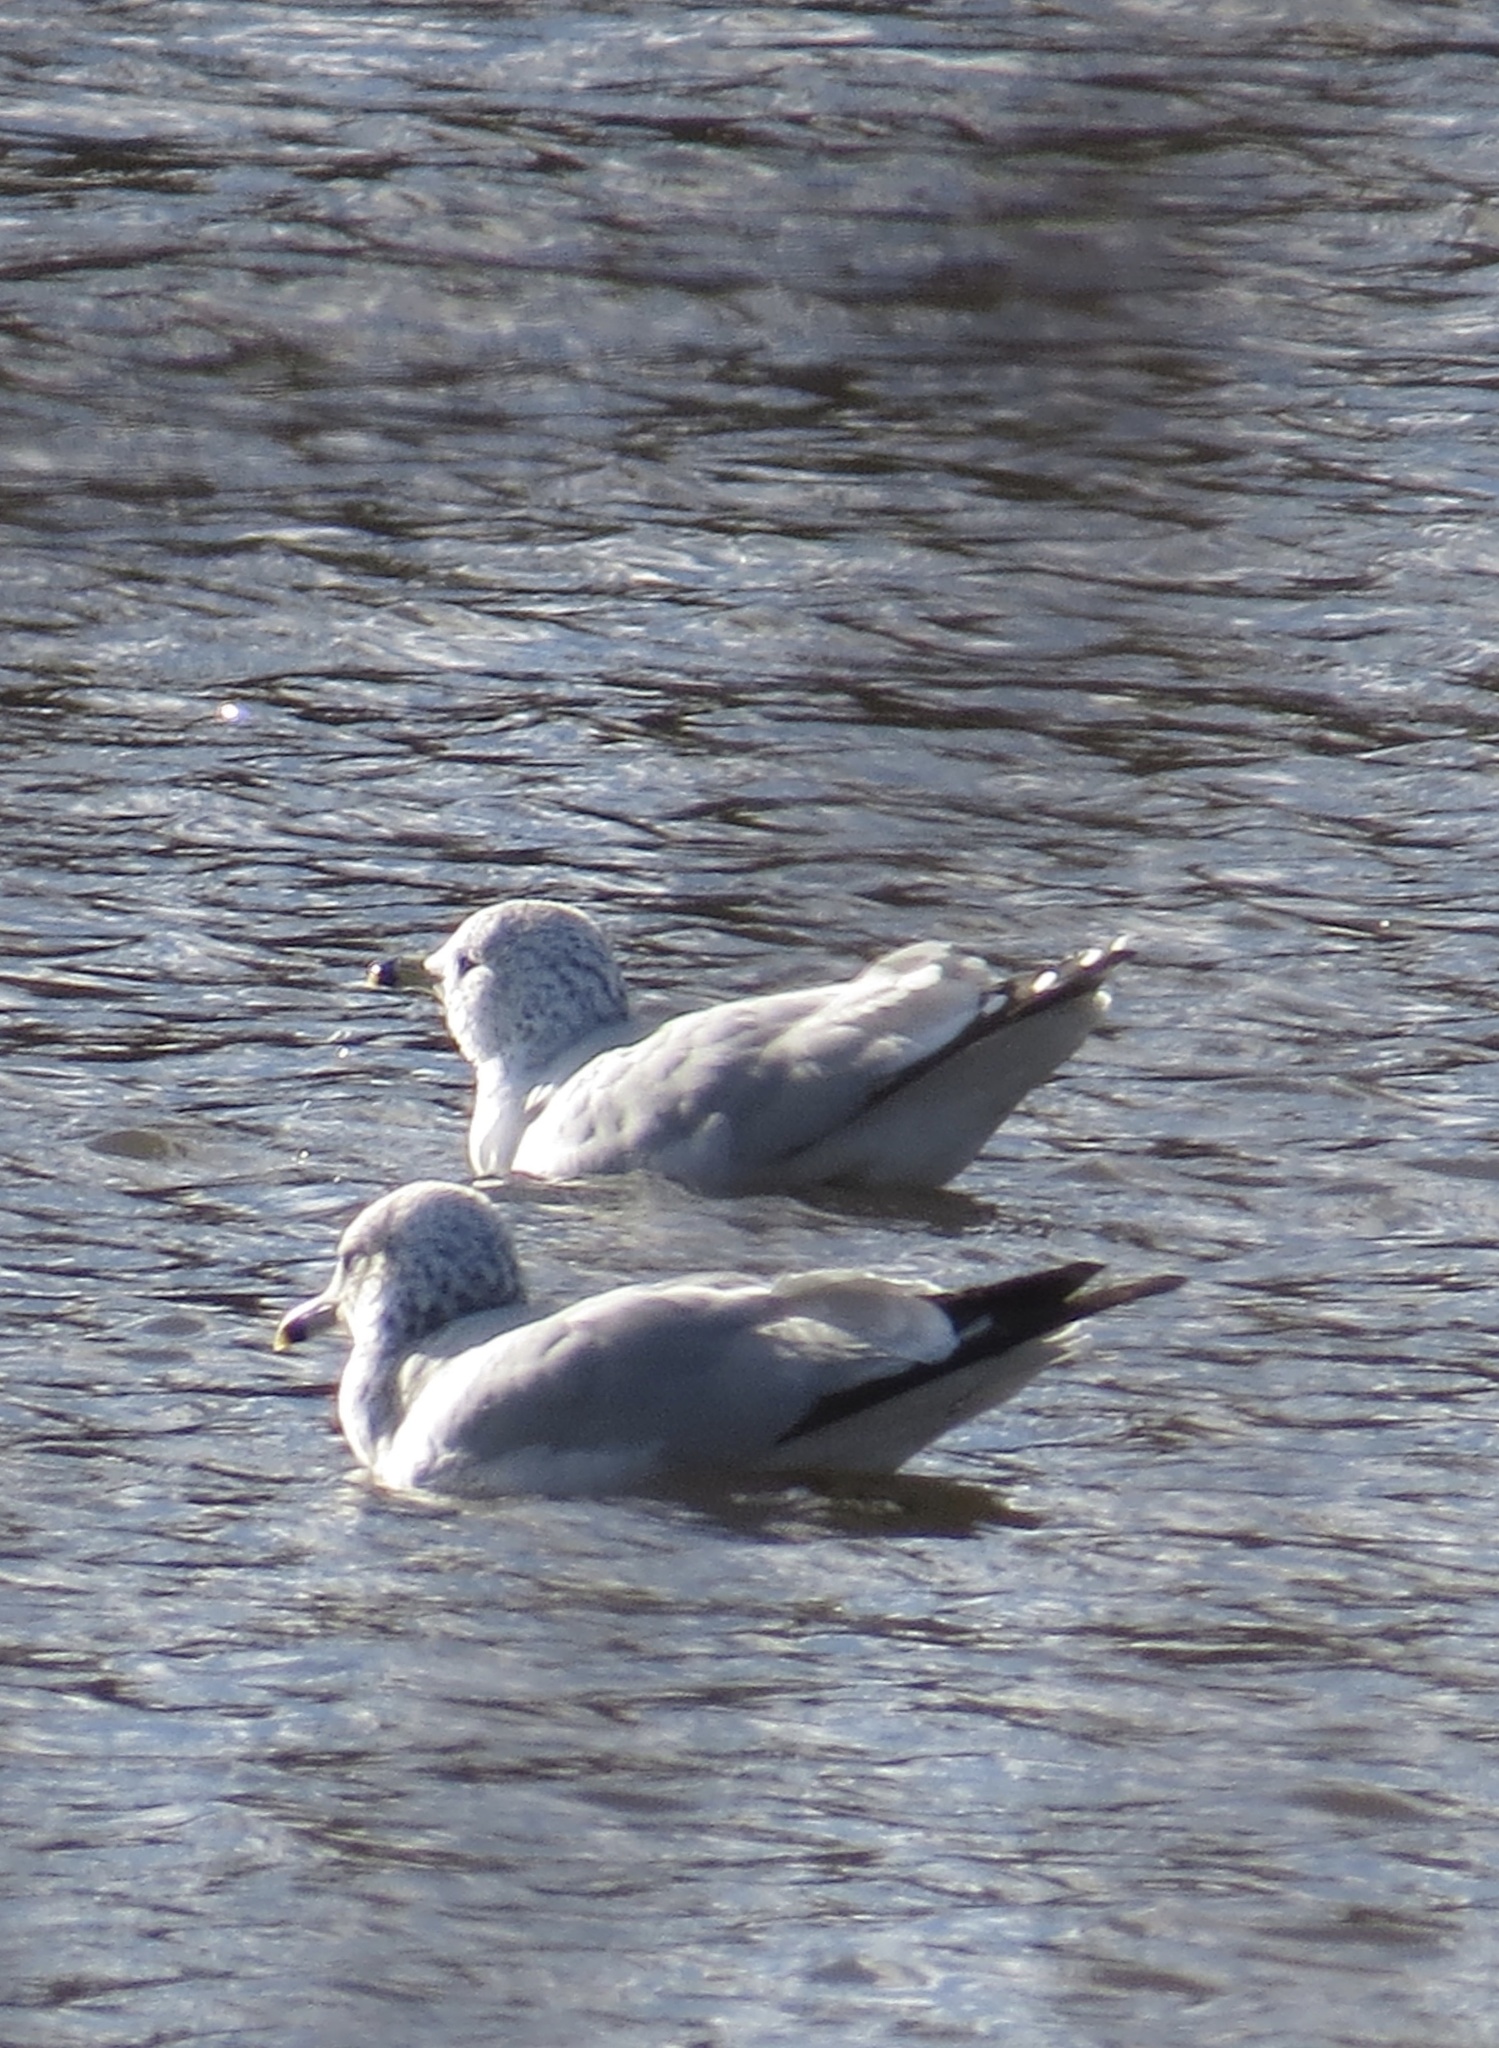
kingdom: Animalia
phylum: Chordata
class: Aves
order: Charadriiformes
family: Laridae
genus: Larus
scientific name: Larus delawarensis
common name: Ring-billed gull
